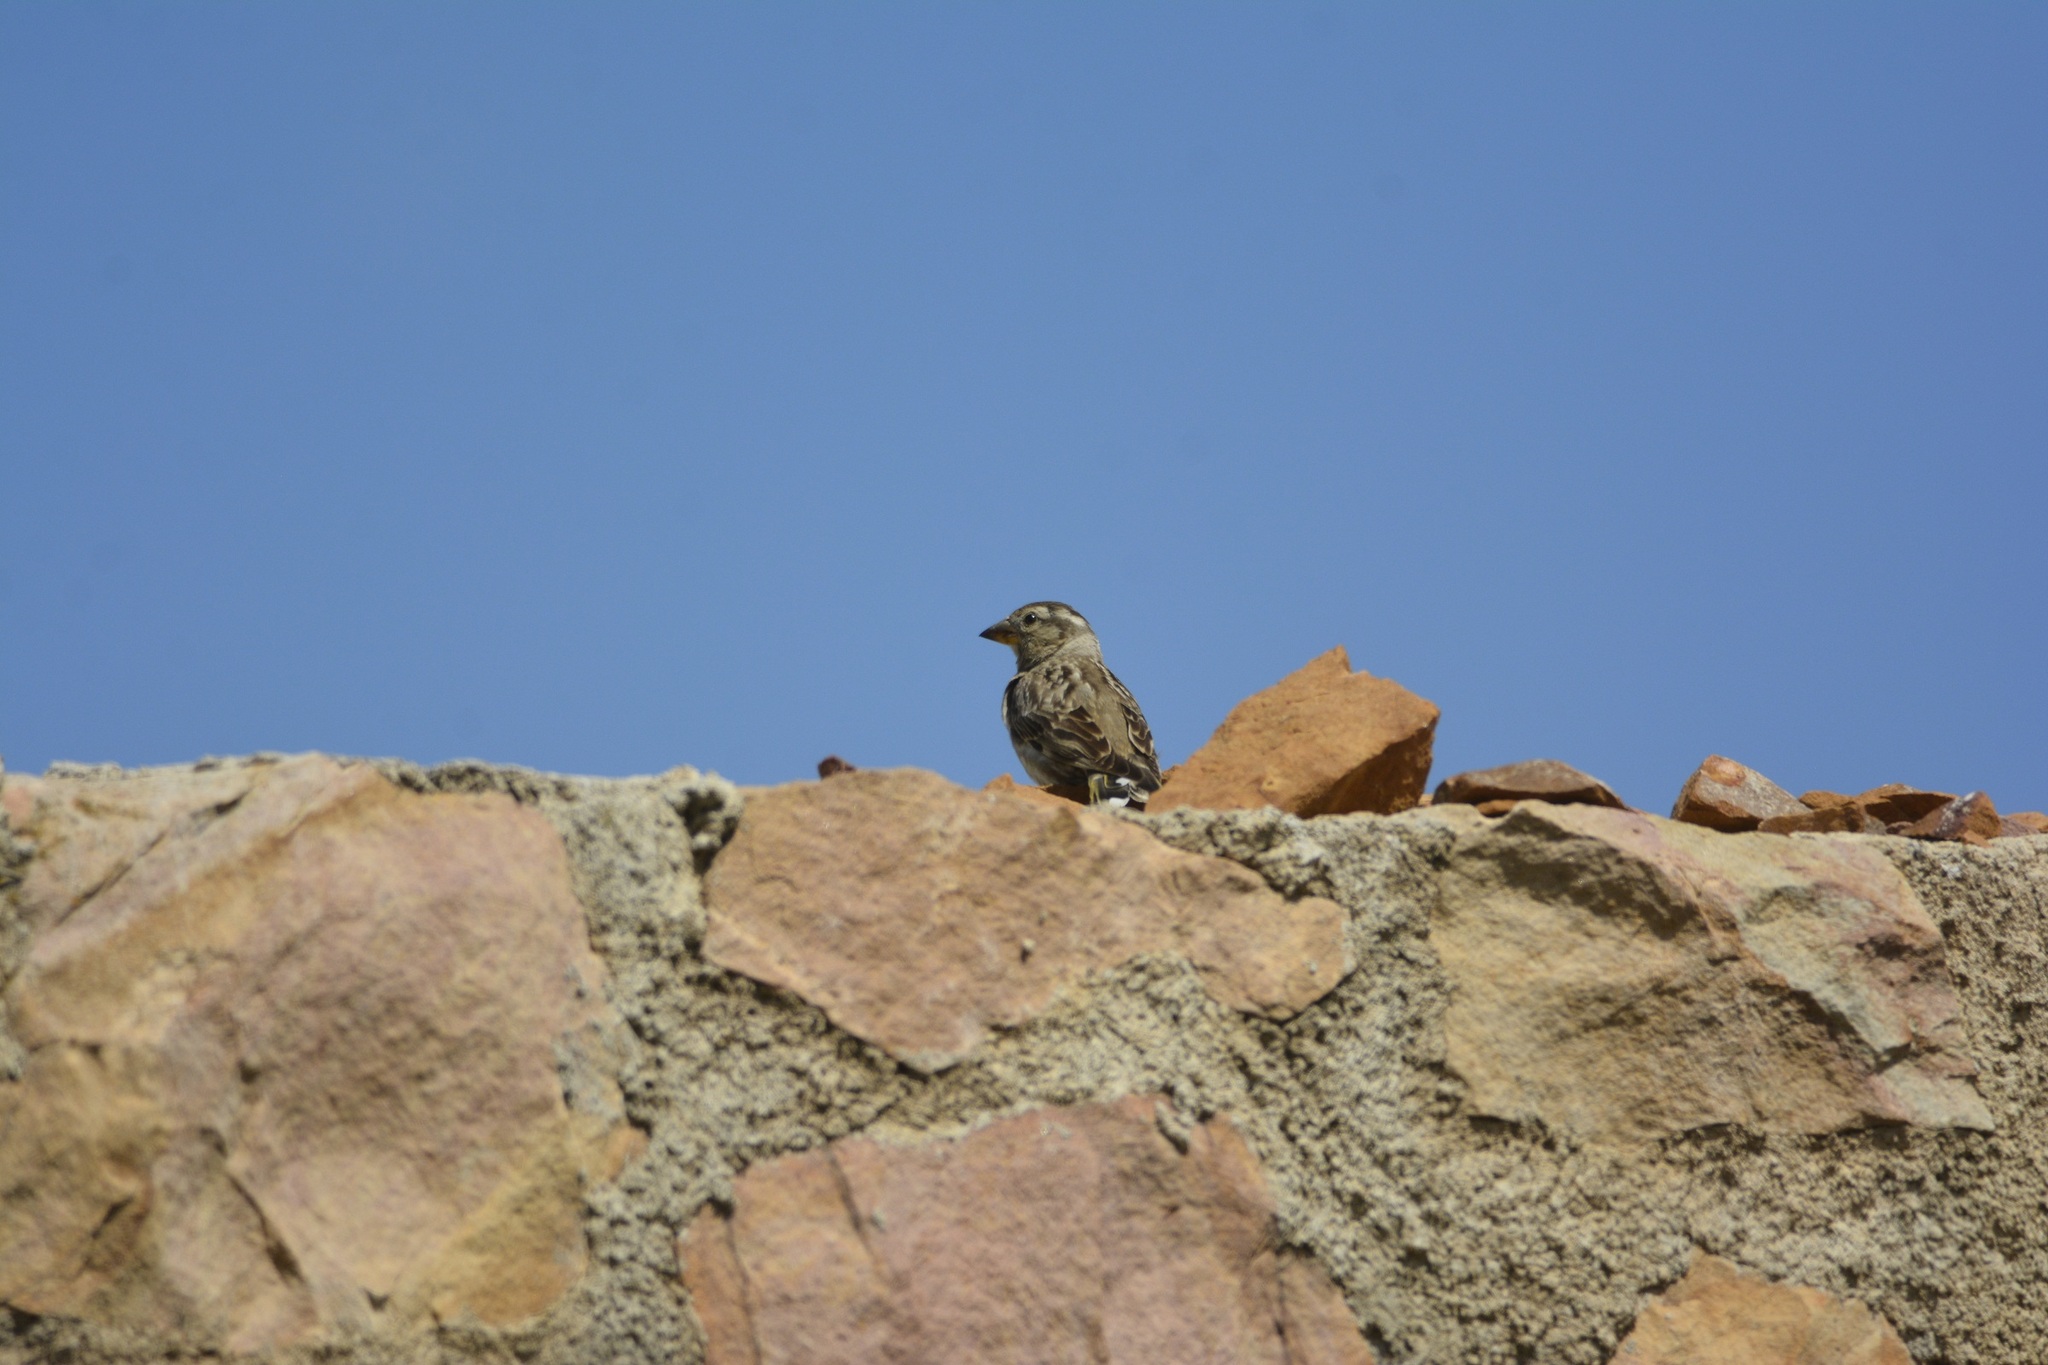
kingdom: Animalia
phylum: Chordata
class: Aves
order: Passeriformes
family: Passeridae
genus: Petronia
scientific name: Petronia petronia
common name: Rock sparrow
